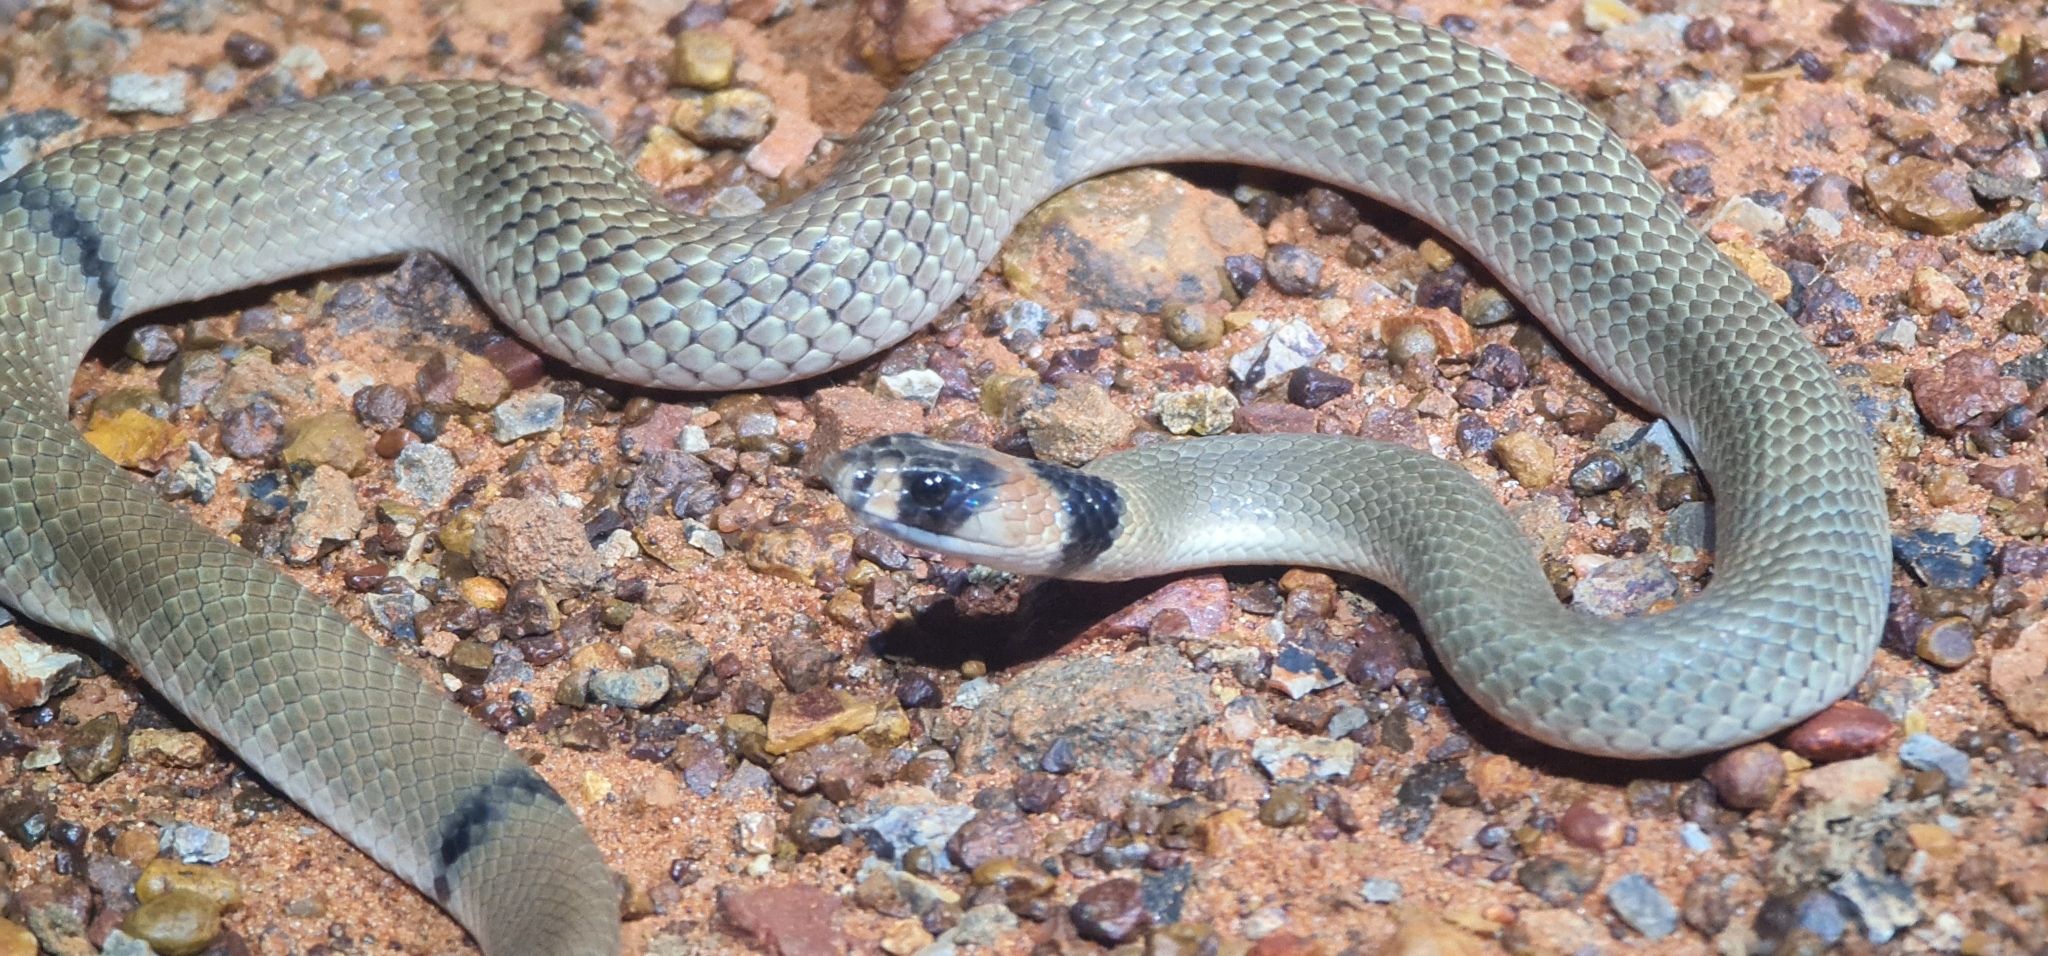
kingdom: Animalia
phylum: Chordata
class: Squamata
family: Elapidae
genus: Pseudonaja
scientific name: Pseudonaja modesta
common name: Ringed brown snake
